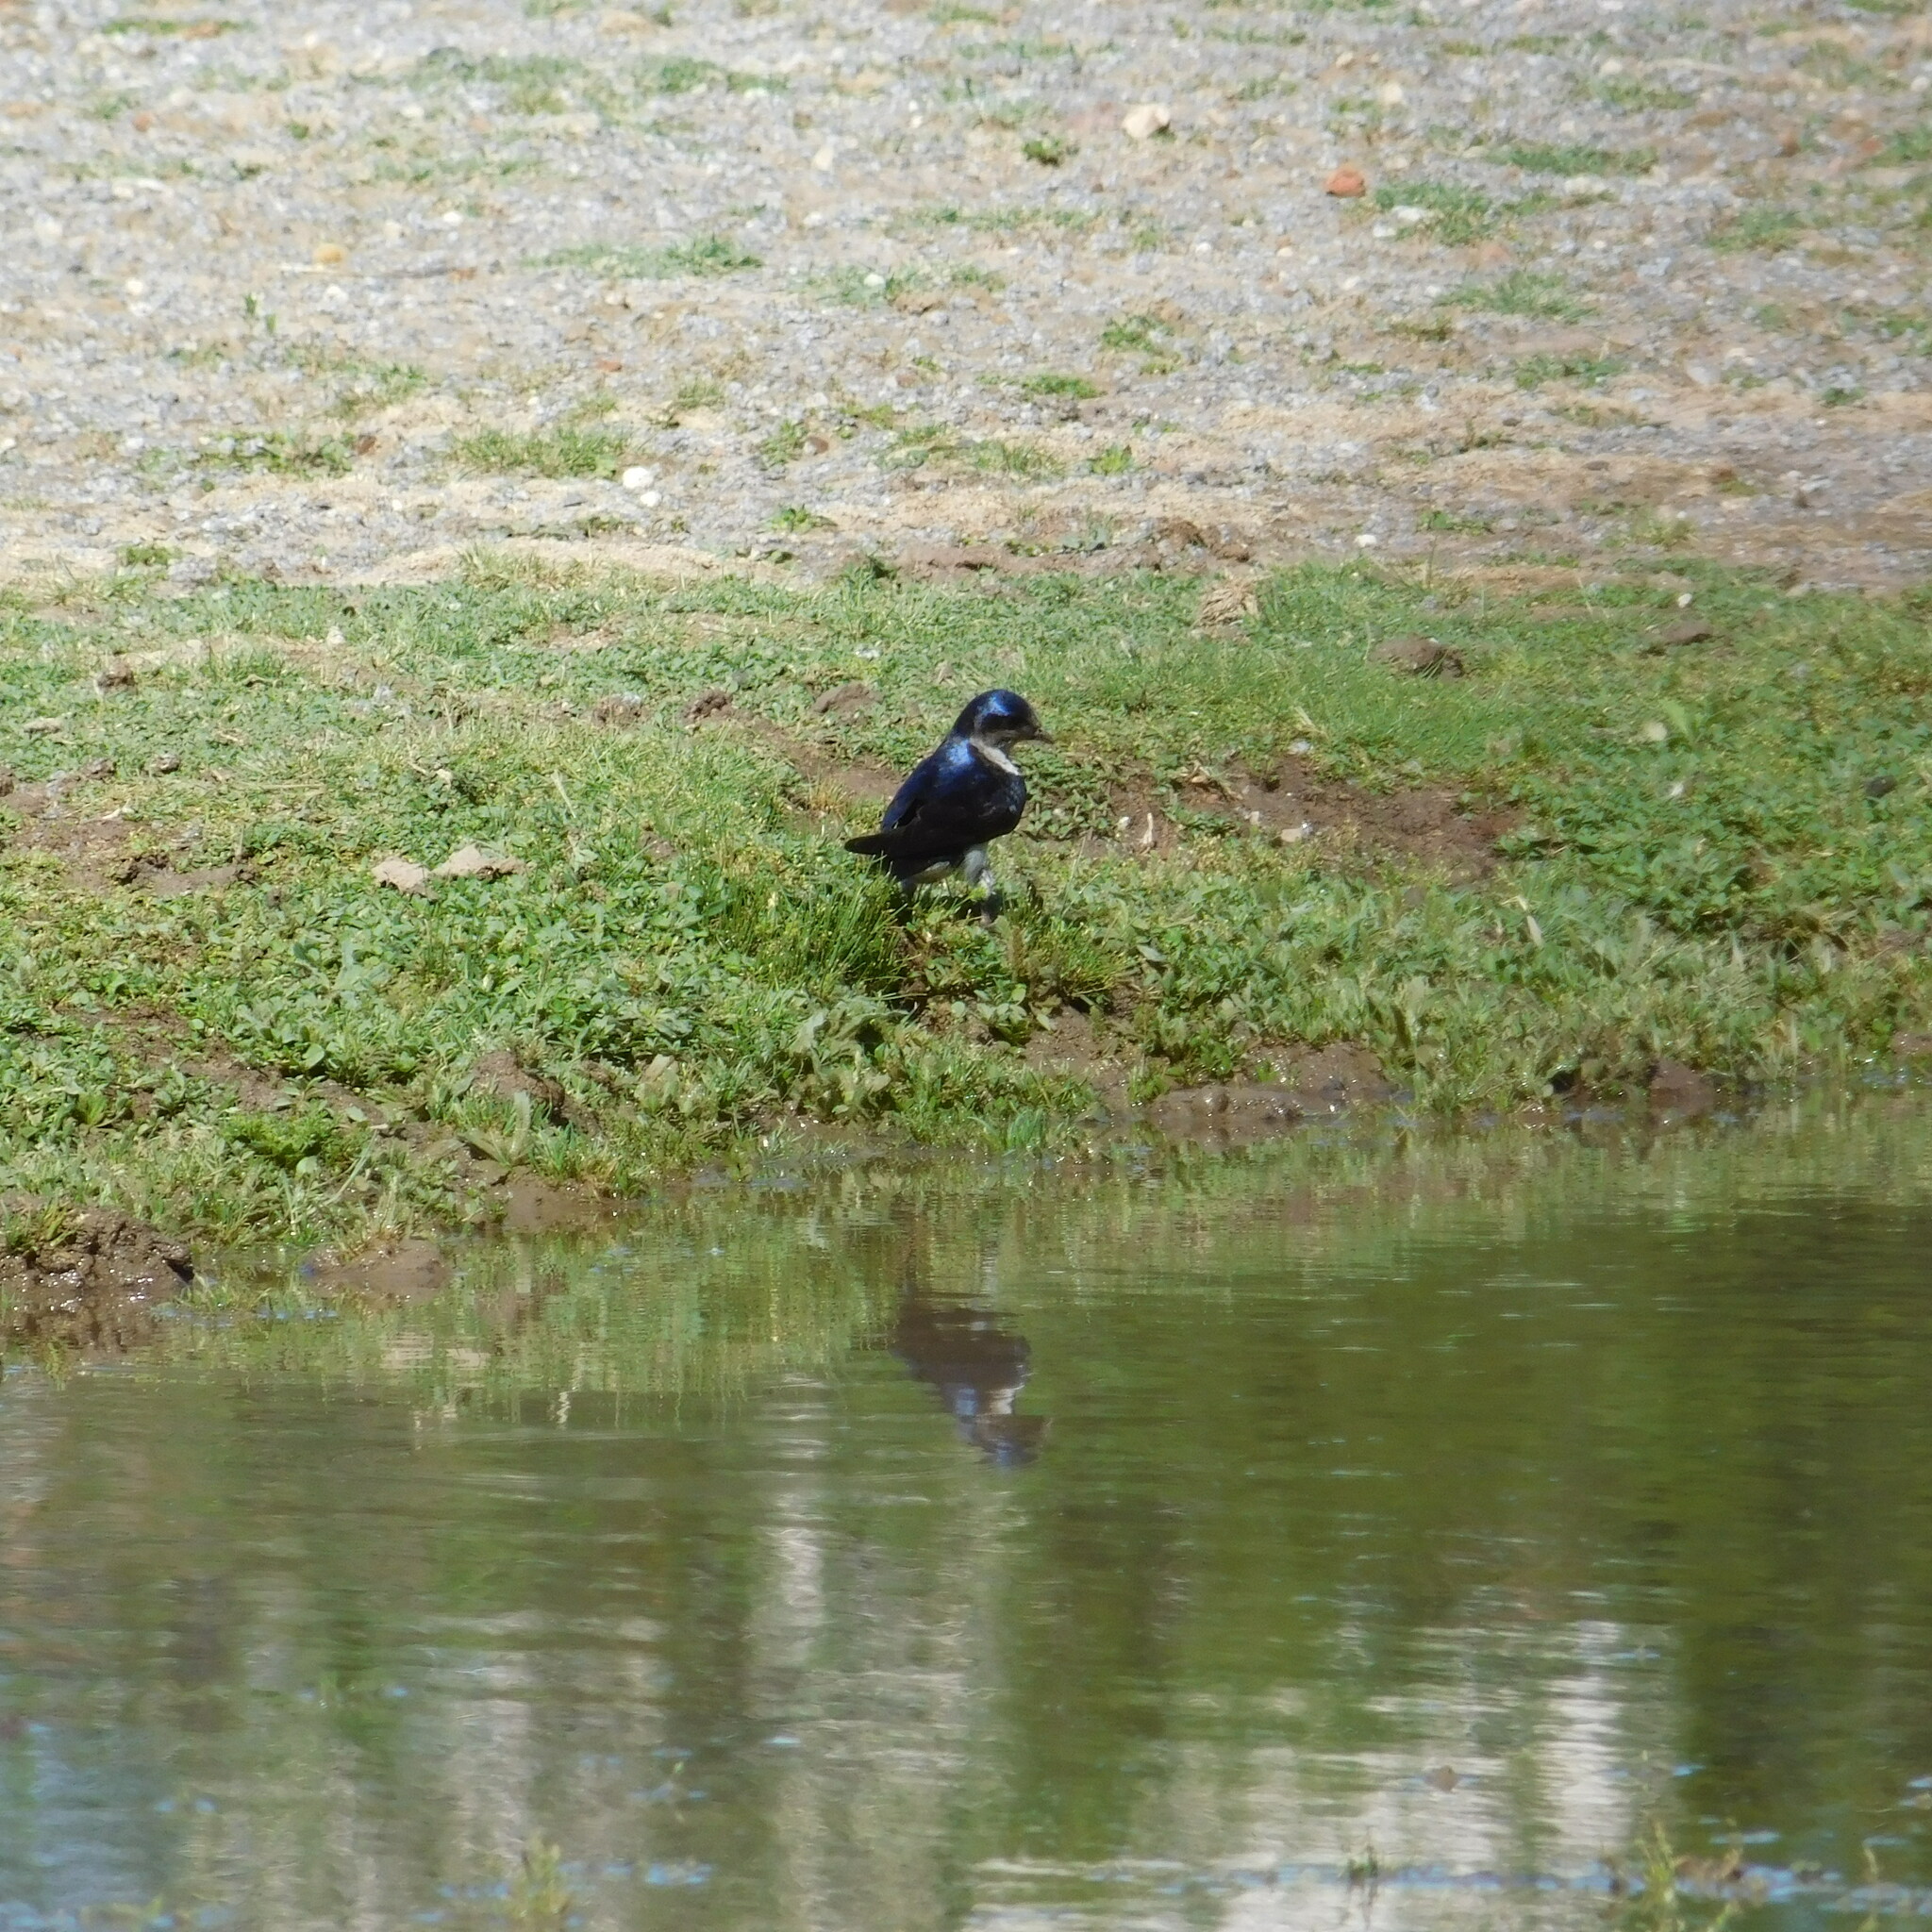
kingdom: Animalia
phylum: Chordata
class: Aves
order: Passeriformes
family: Hirundinidae
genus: Progne
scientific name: Progne chalybea
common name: Grey-breasted martin
